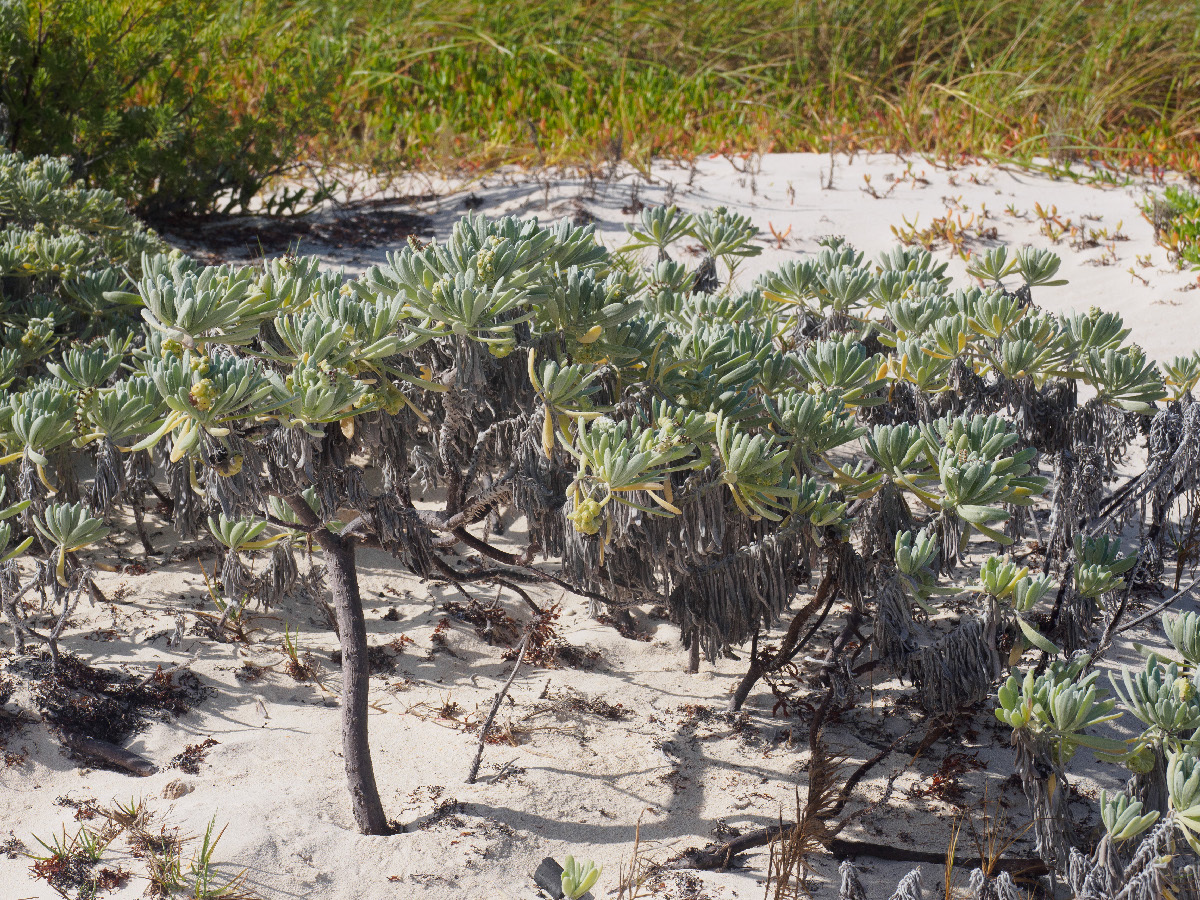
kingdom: Plantae
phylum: Tracheophyta
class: Magnoliopsida
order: Boraginales
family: Heliotropiaceae
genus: Tournefortia
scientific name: Tournefortia gnaphalodes
